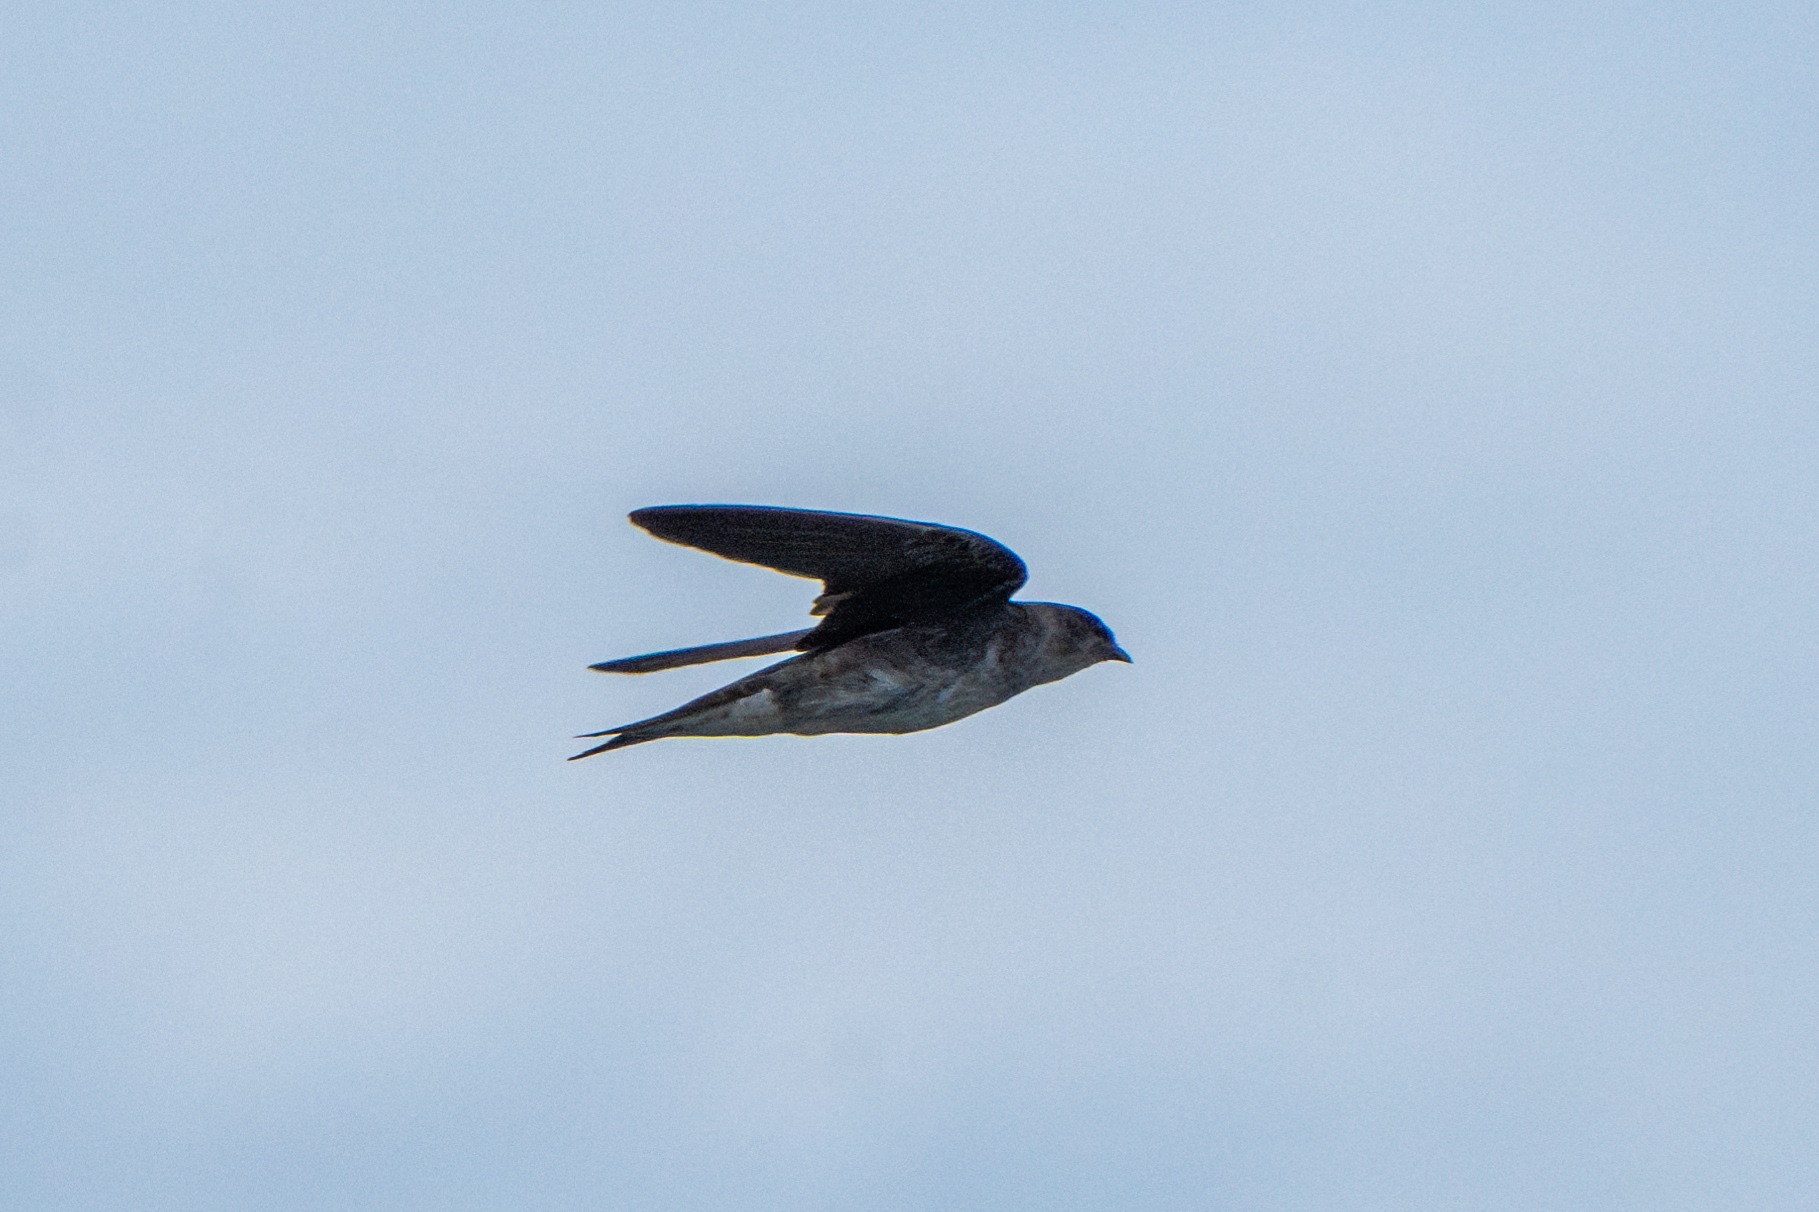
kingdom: Animalia
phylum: Chordata
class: Aves
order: Passeriformes
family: Hirundinidae
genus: Progne
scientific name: Progne subis
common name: Purple martin
